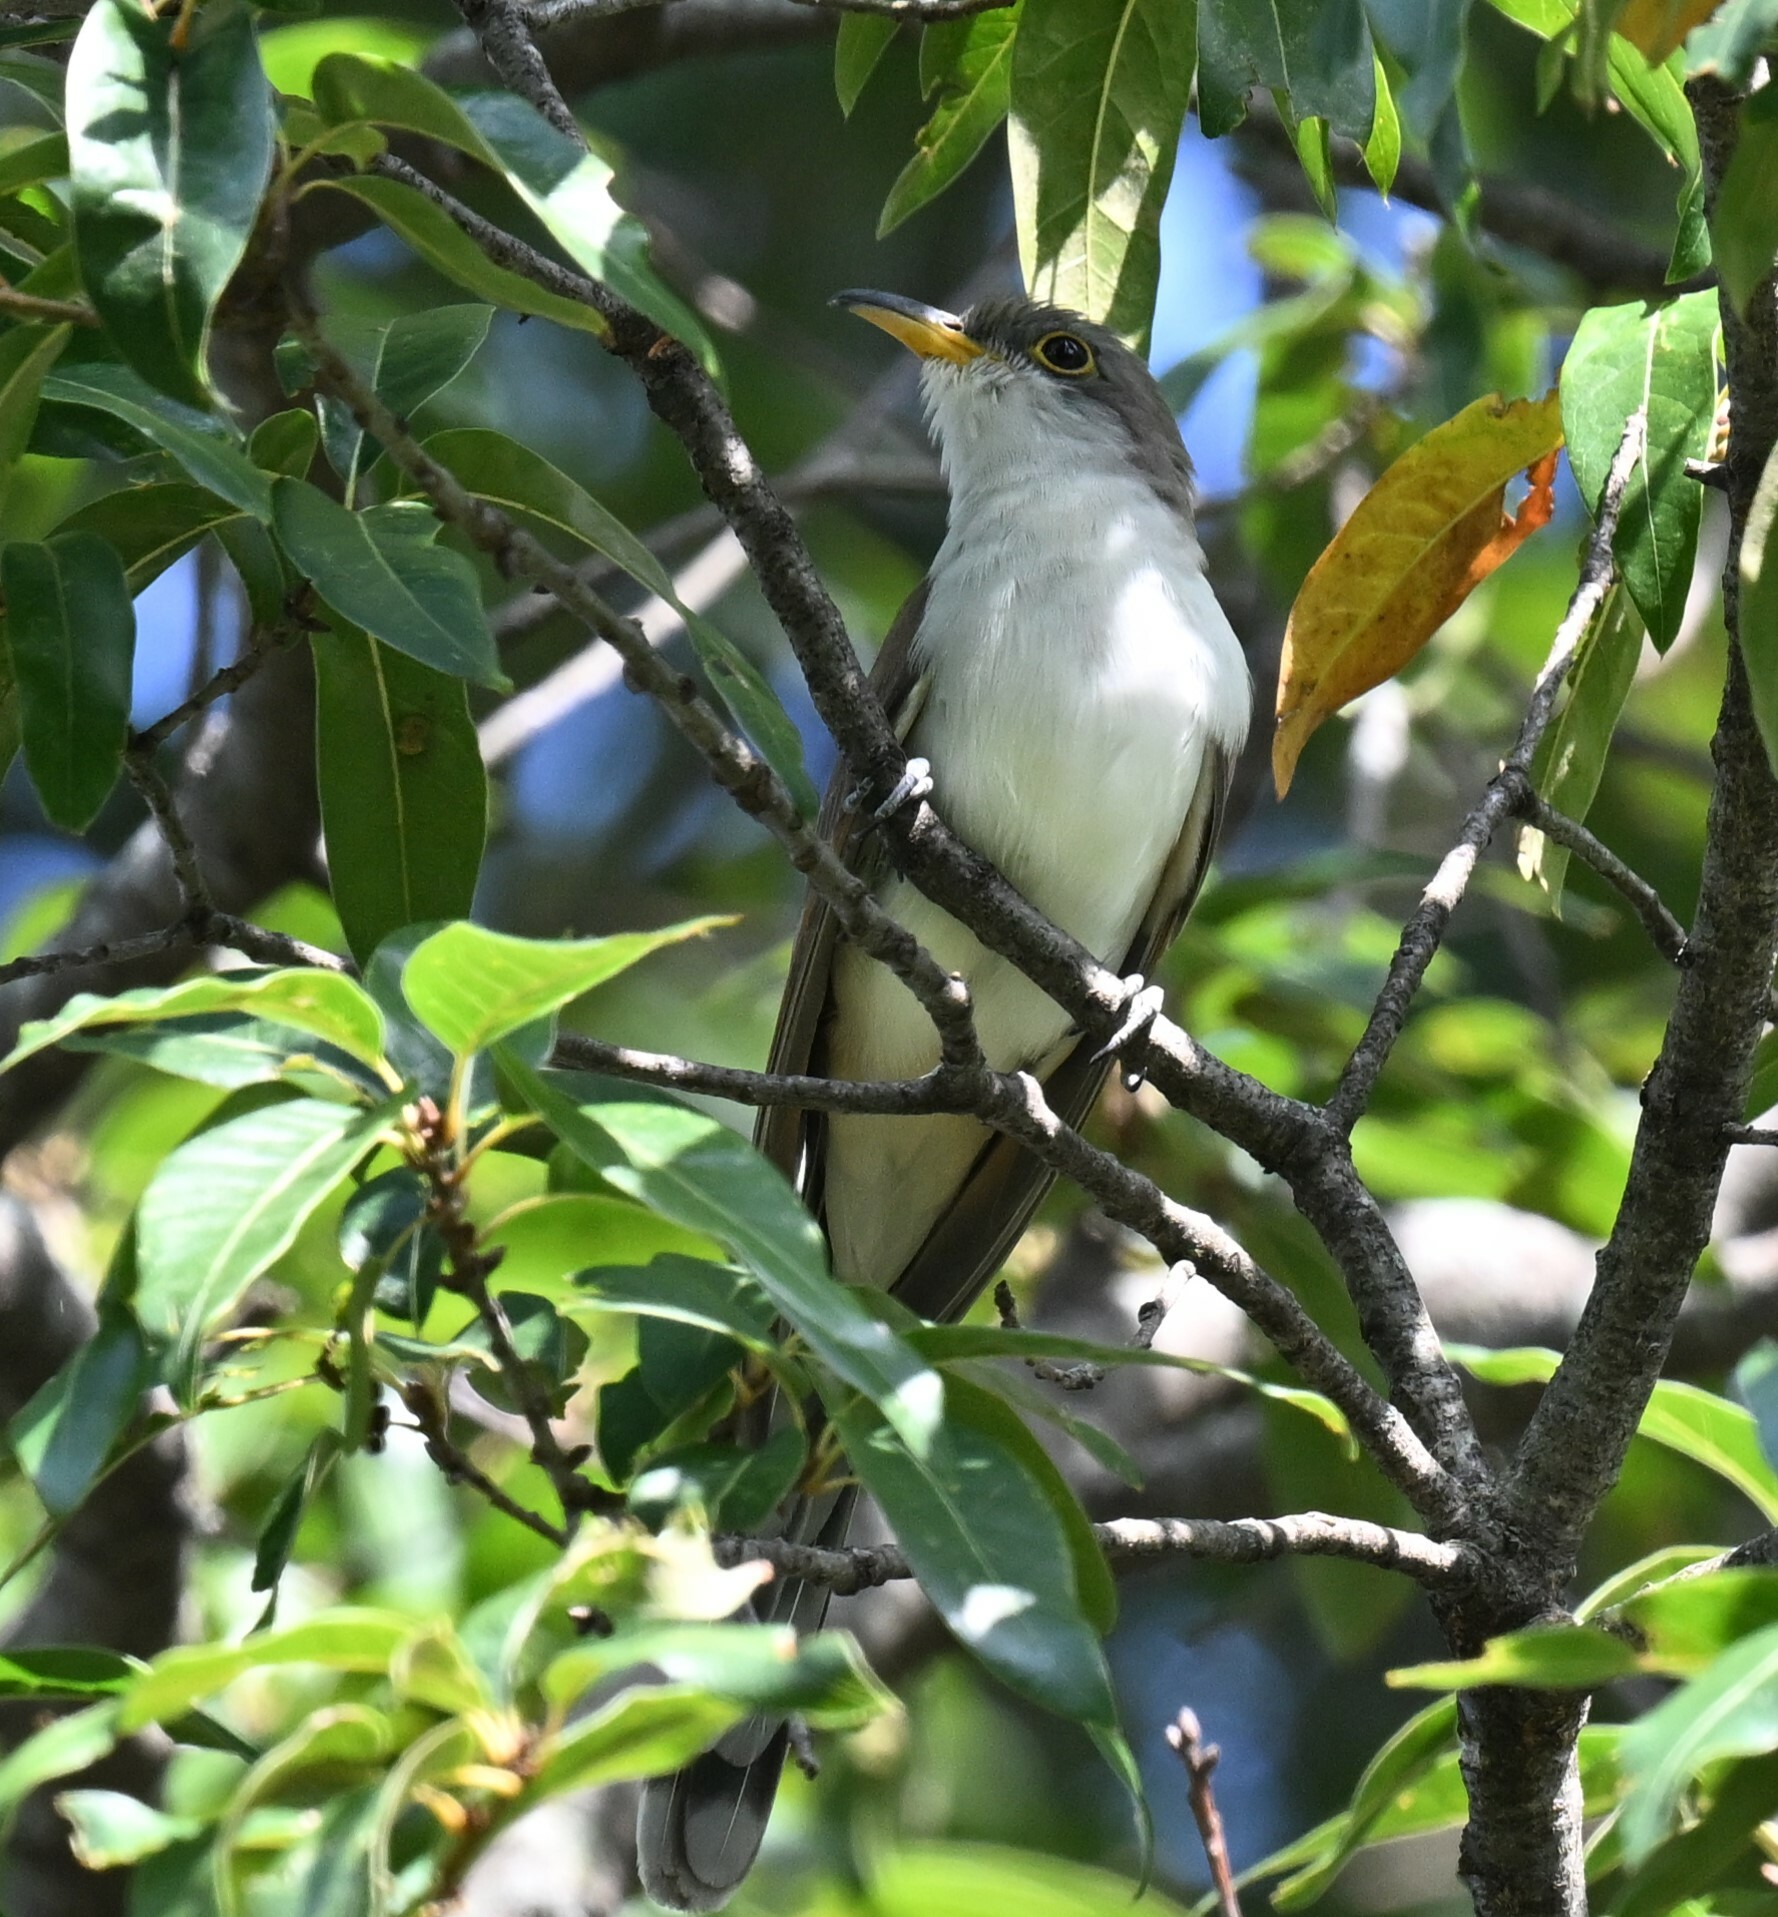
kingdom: Animalia
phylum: Chordata
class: Aves
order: Cuculiformes
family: Cuculidae
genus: Coccyzus
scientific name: Coccyzus americanus
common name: Yellow-billed cuckoo
